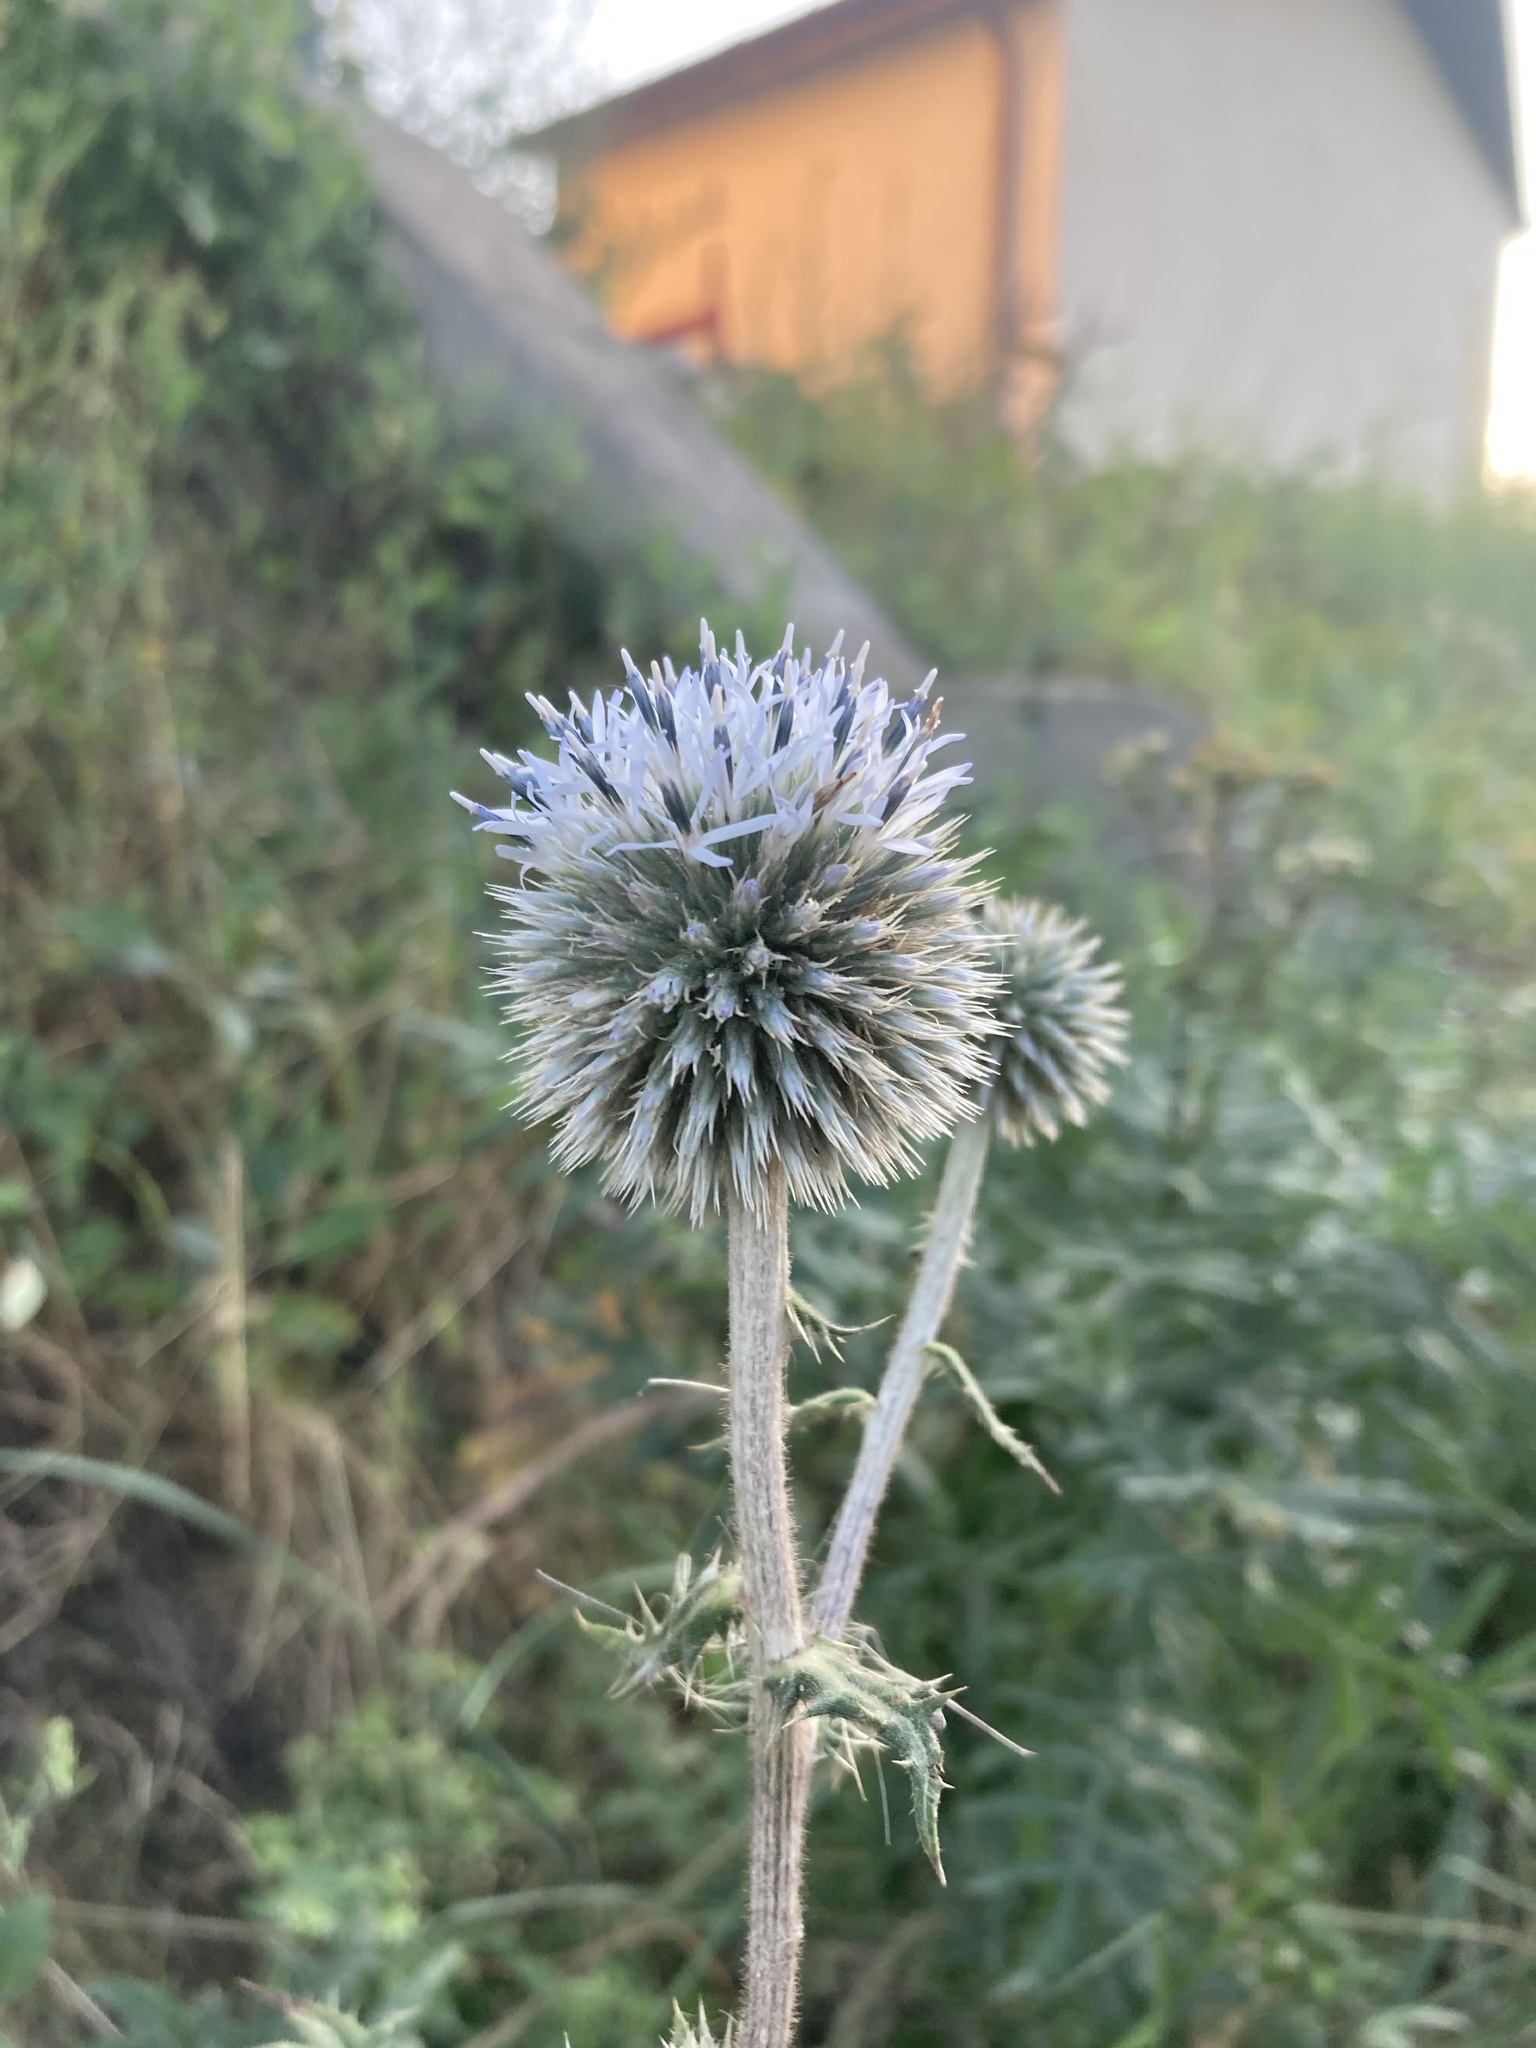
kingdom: Plantae
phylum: Tracheophyta
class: Magnoliopsida
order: Asterales
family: Asteraceae
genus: Echinops
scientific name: Echinops sphaerocephalus
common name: Glandular globe-thistle
